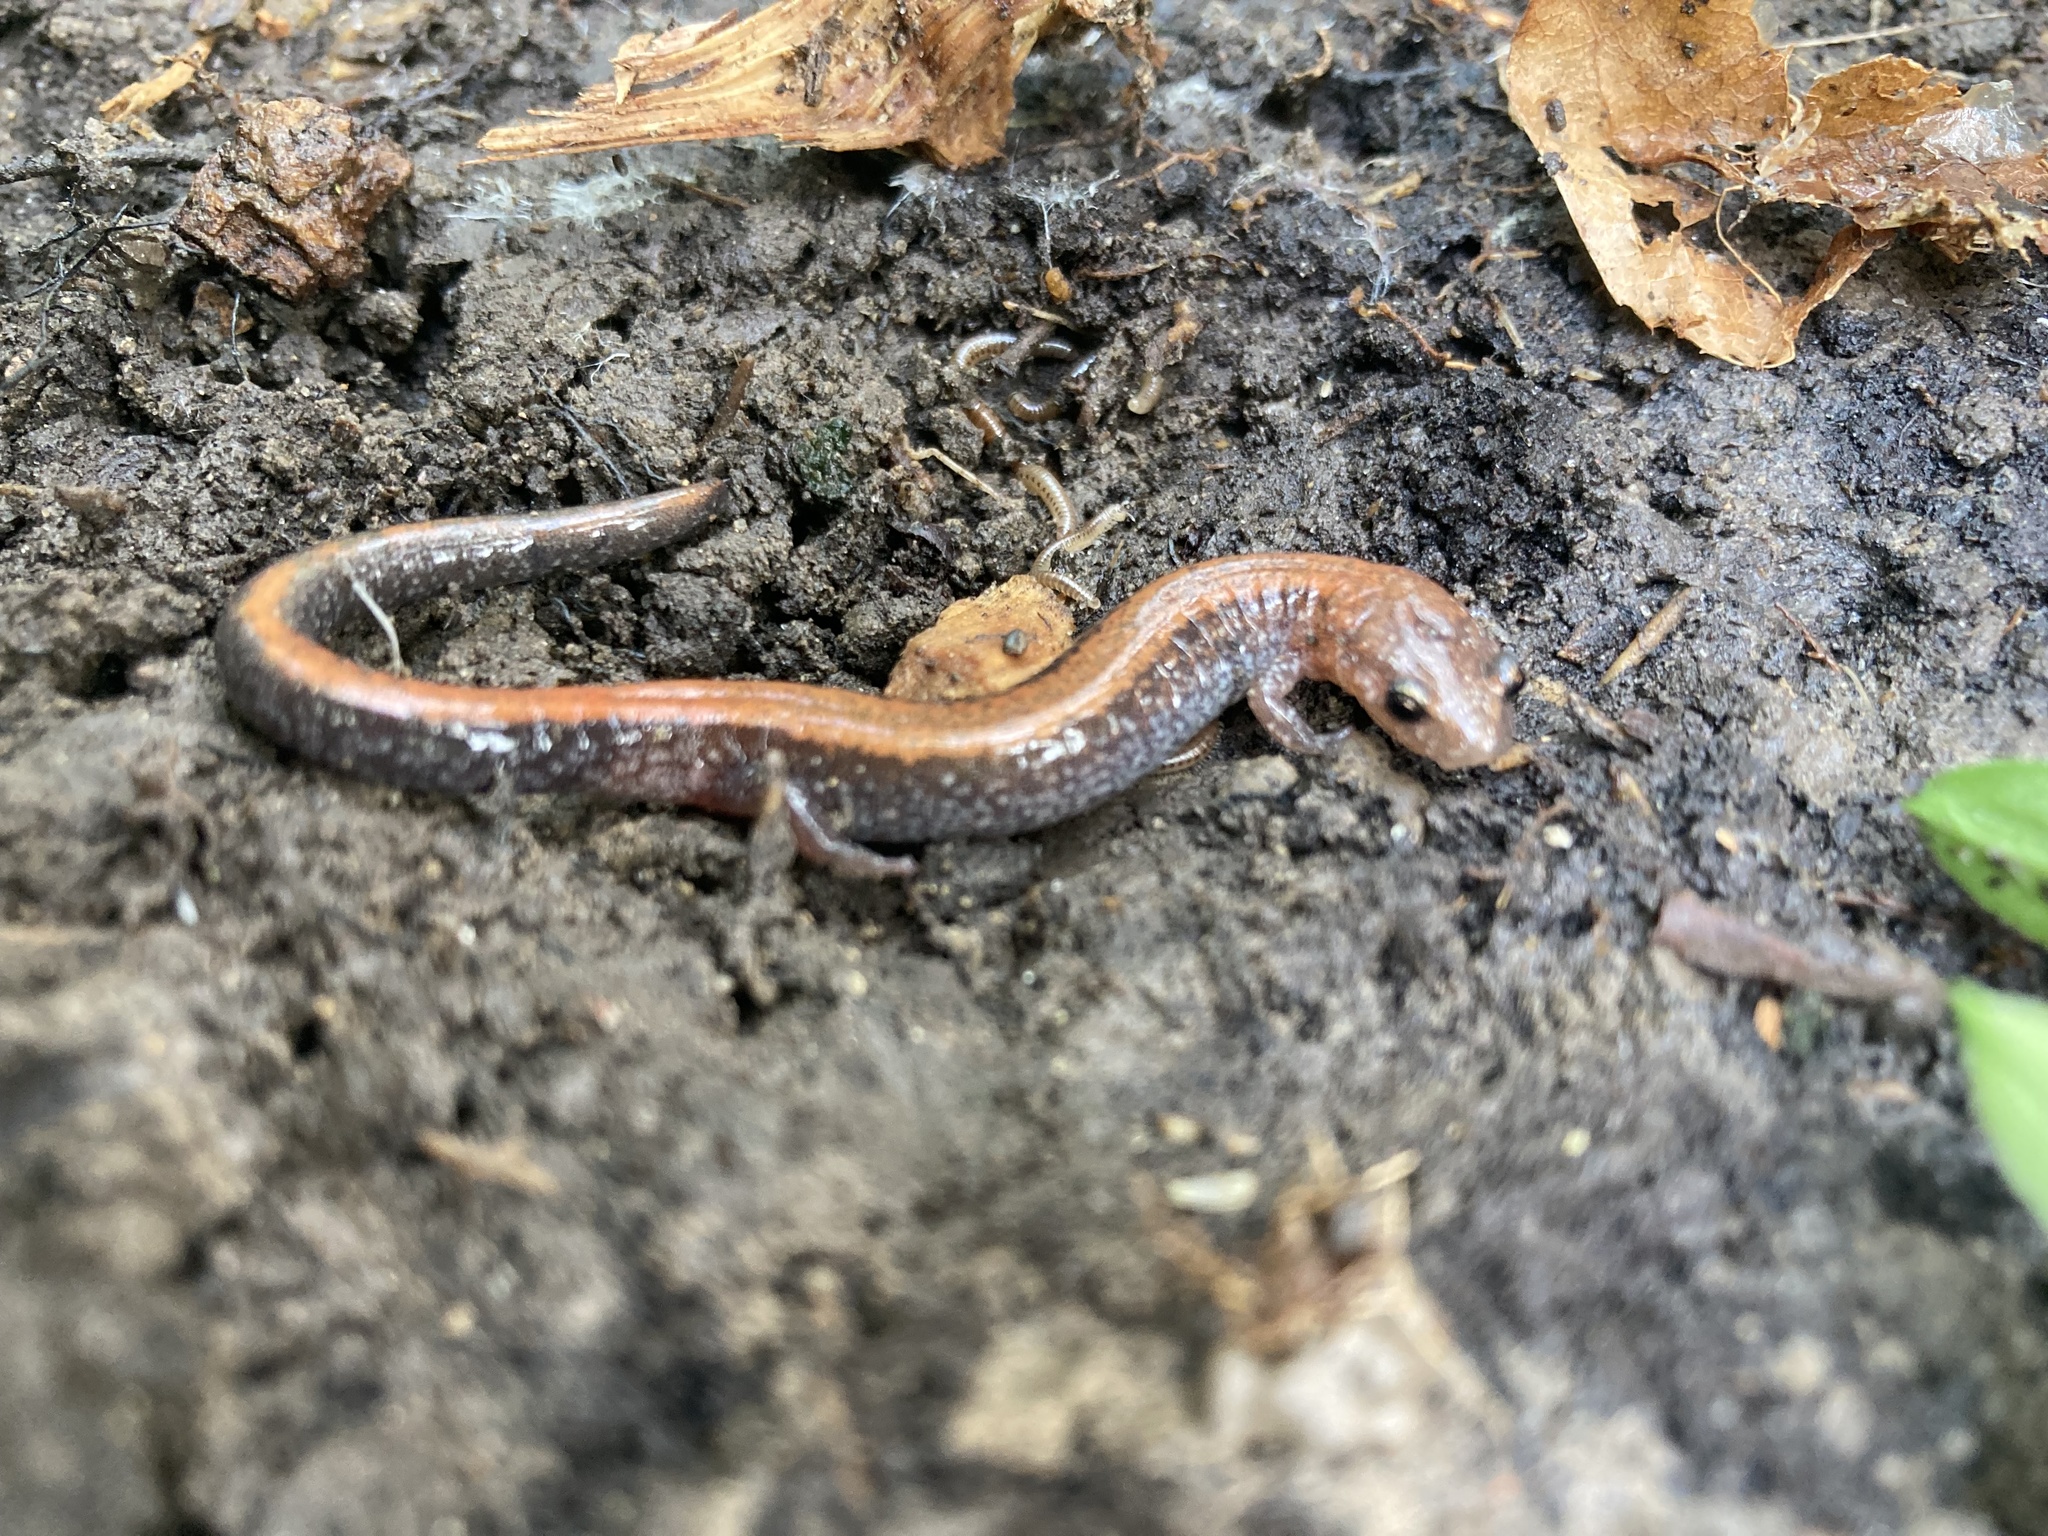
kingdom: Animalia
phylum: Chordata
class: Amphibia
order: Caudata
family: Plethodontidae
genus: Plethodon
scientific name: Plethodon cinereus
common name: Redback salamander
